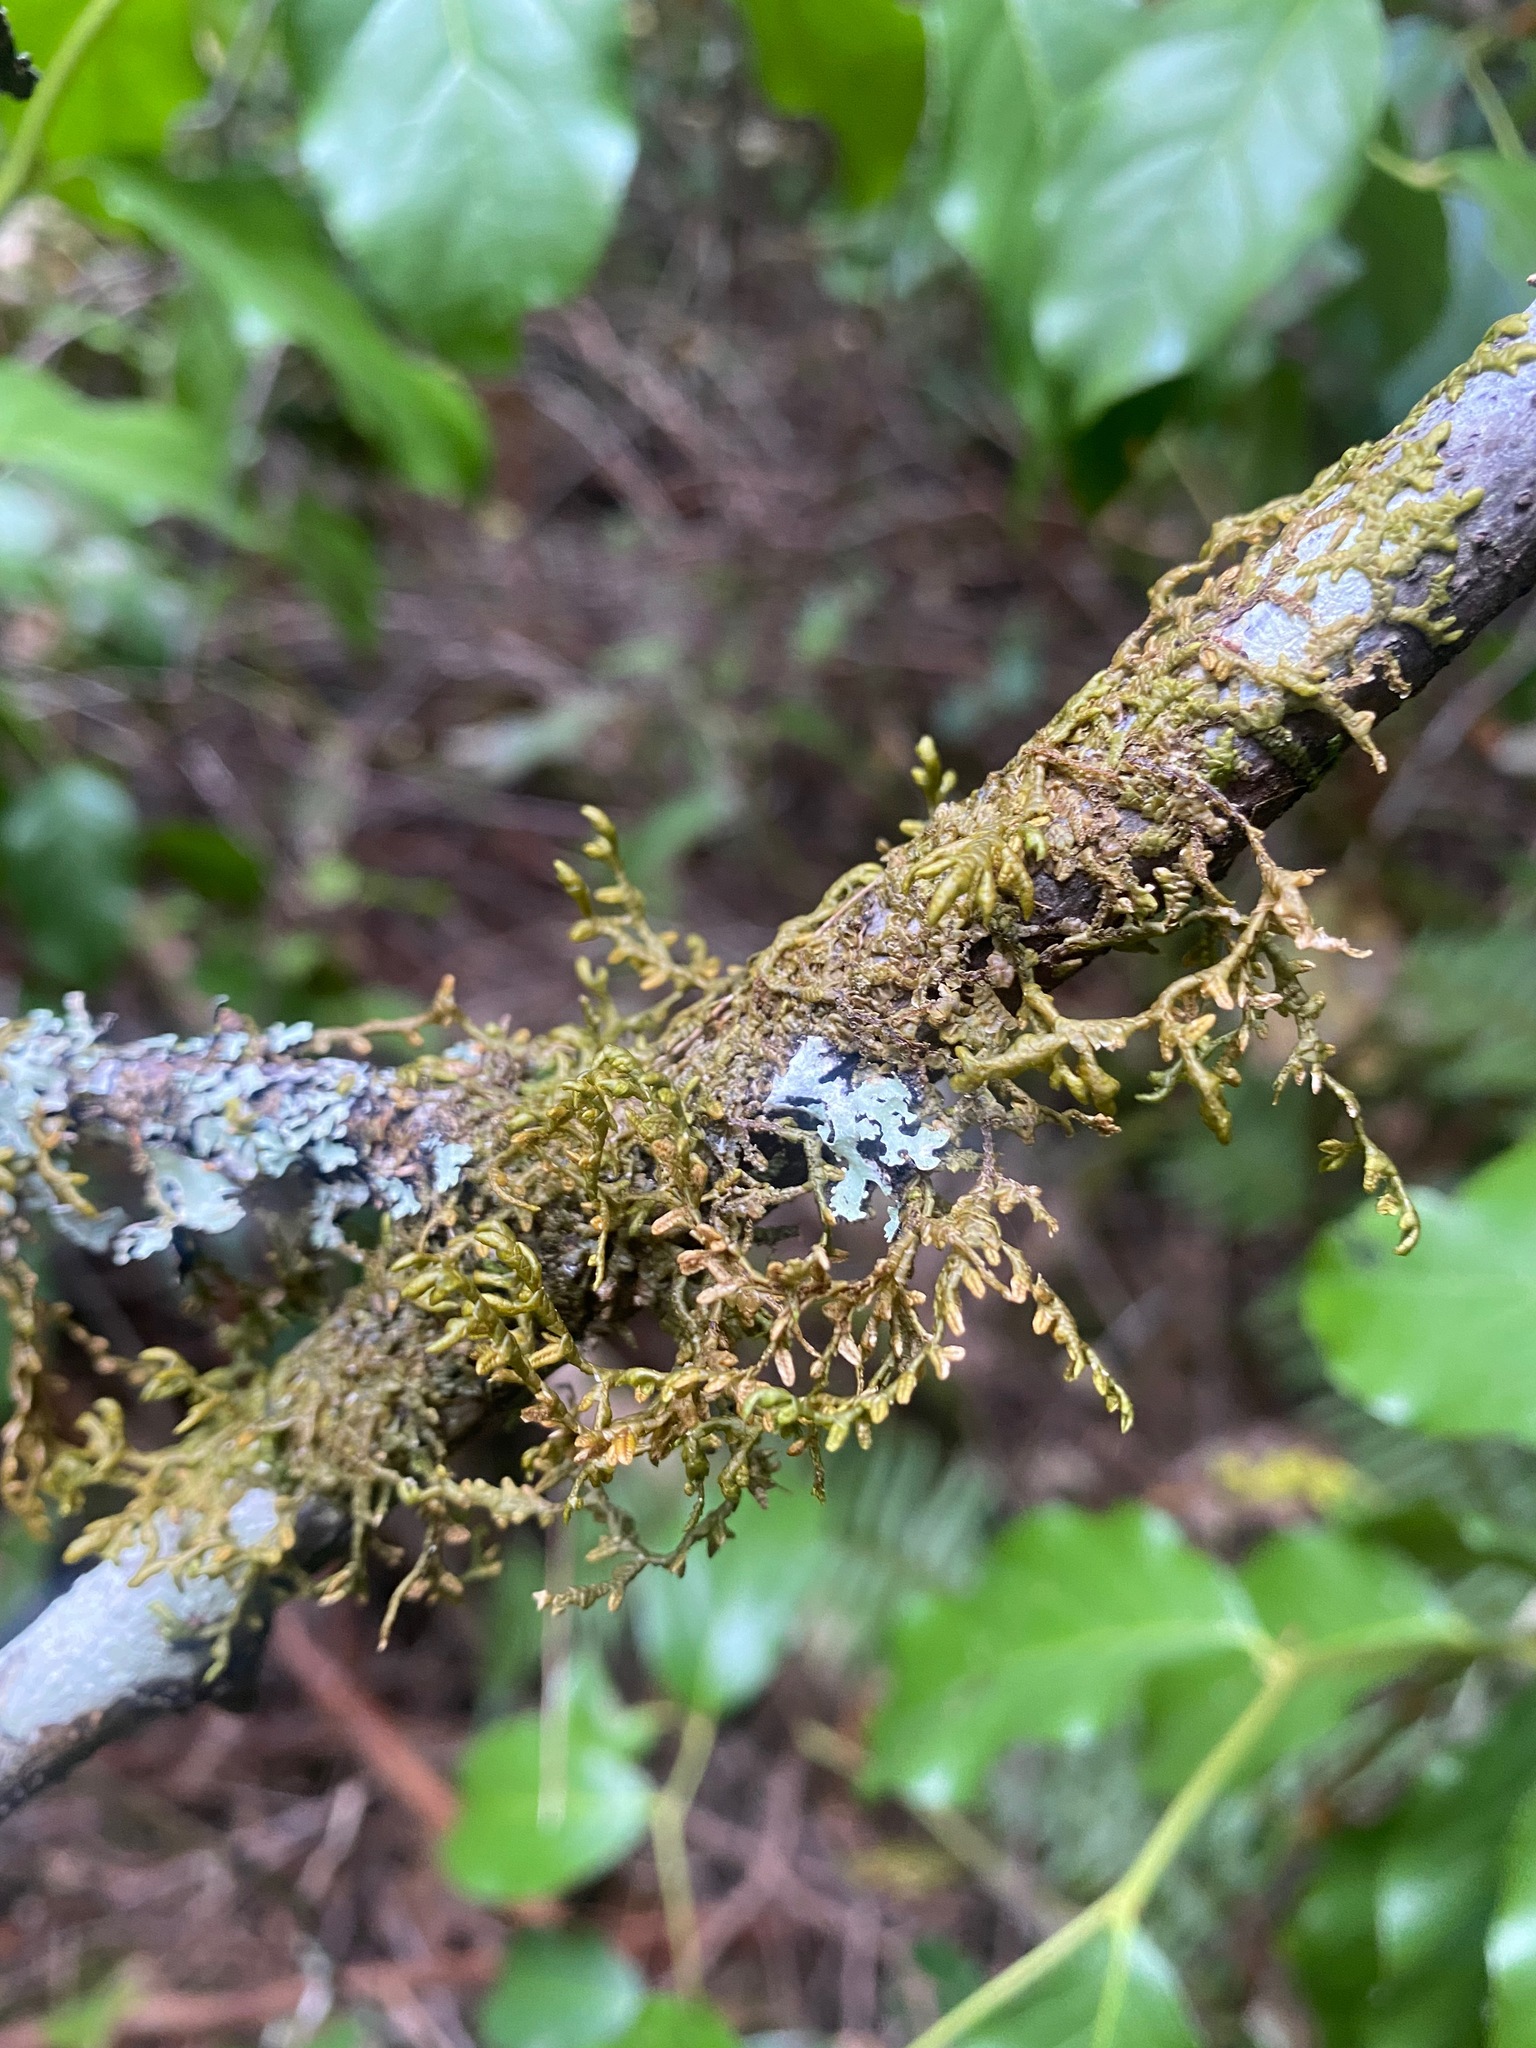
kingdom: Plantae
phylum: Marchantiophyta
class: Jungermanniopsida
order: Porellales
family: Porellaceae
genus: Porella
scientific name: Porella navicularis
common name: Tree ruffle liverwort
